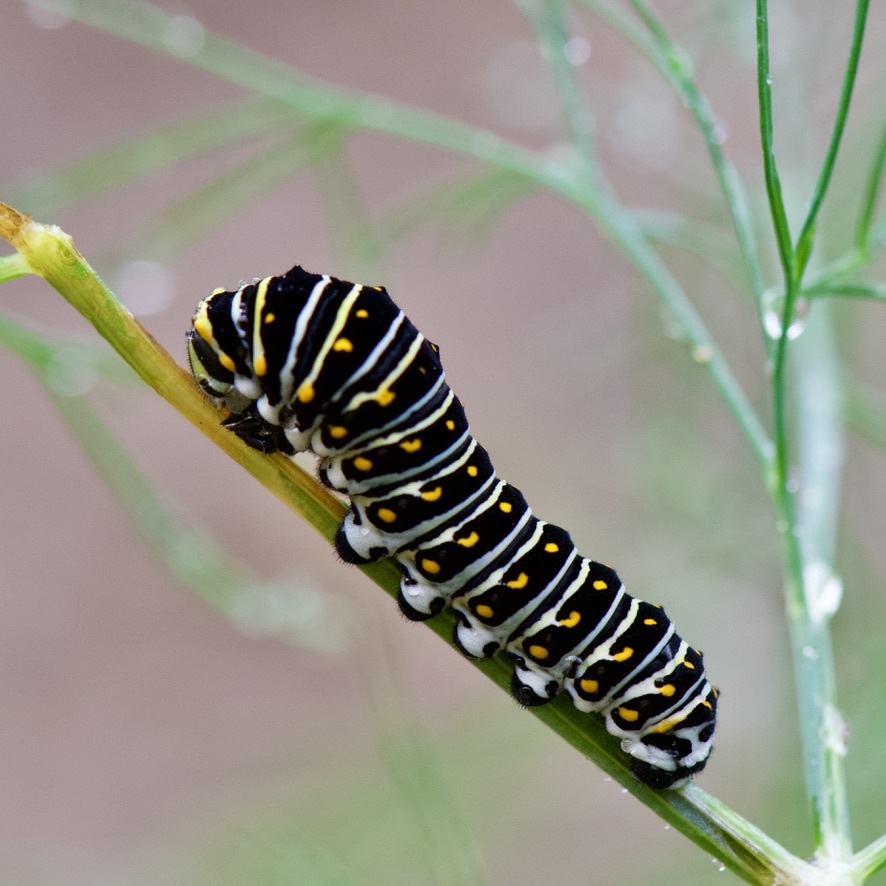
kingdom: Animalia
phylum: Arthropoda
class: Insecta
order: Lepidoptera
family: Papilionidae
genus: Papilio
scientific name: Papilio polyxenes
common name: Black swallowtail
